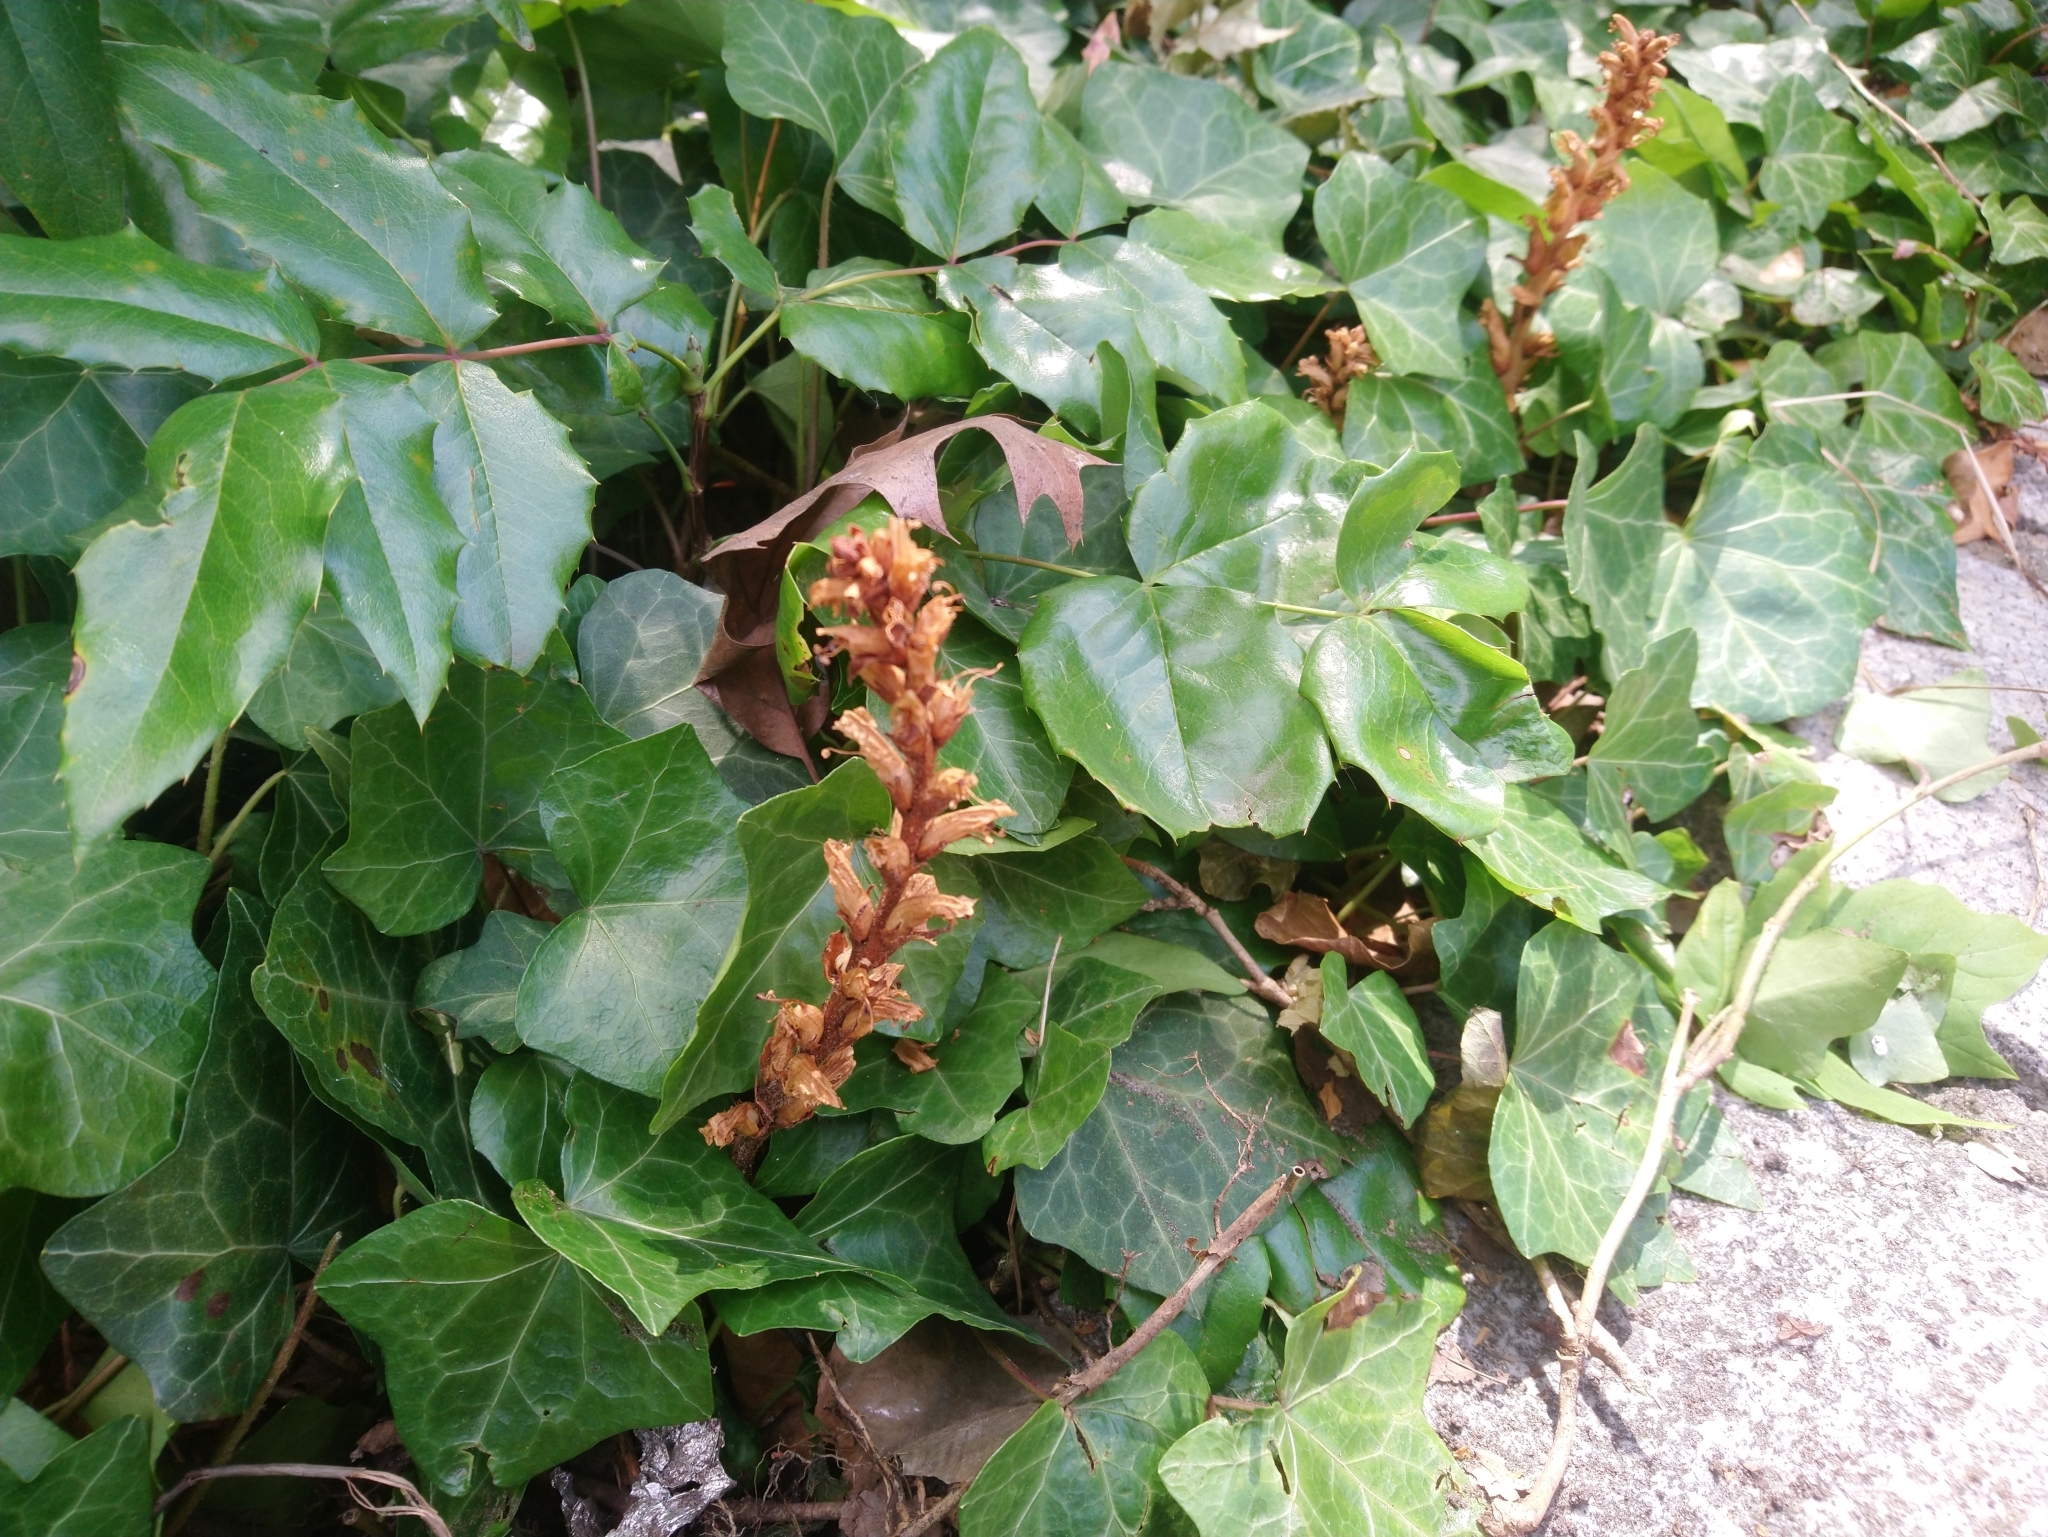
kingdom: Plantae
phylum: Tracheophyta
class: Magnoliopsida
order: Lamiales
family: Orobanchaceae
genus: Orobanche
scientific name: Orobanche hederae
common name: Ivy broomrape
